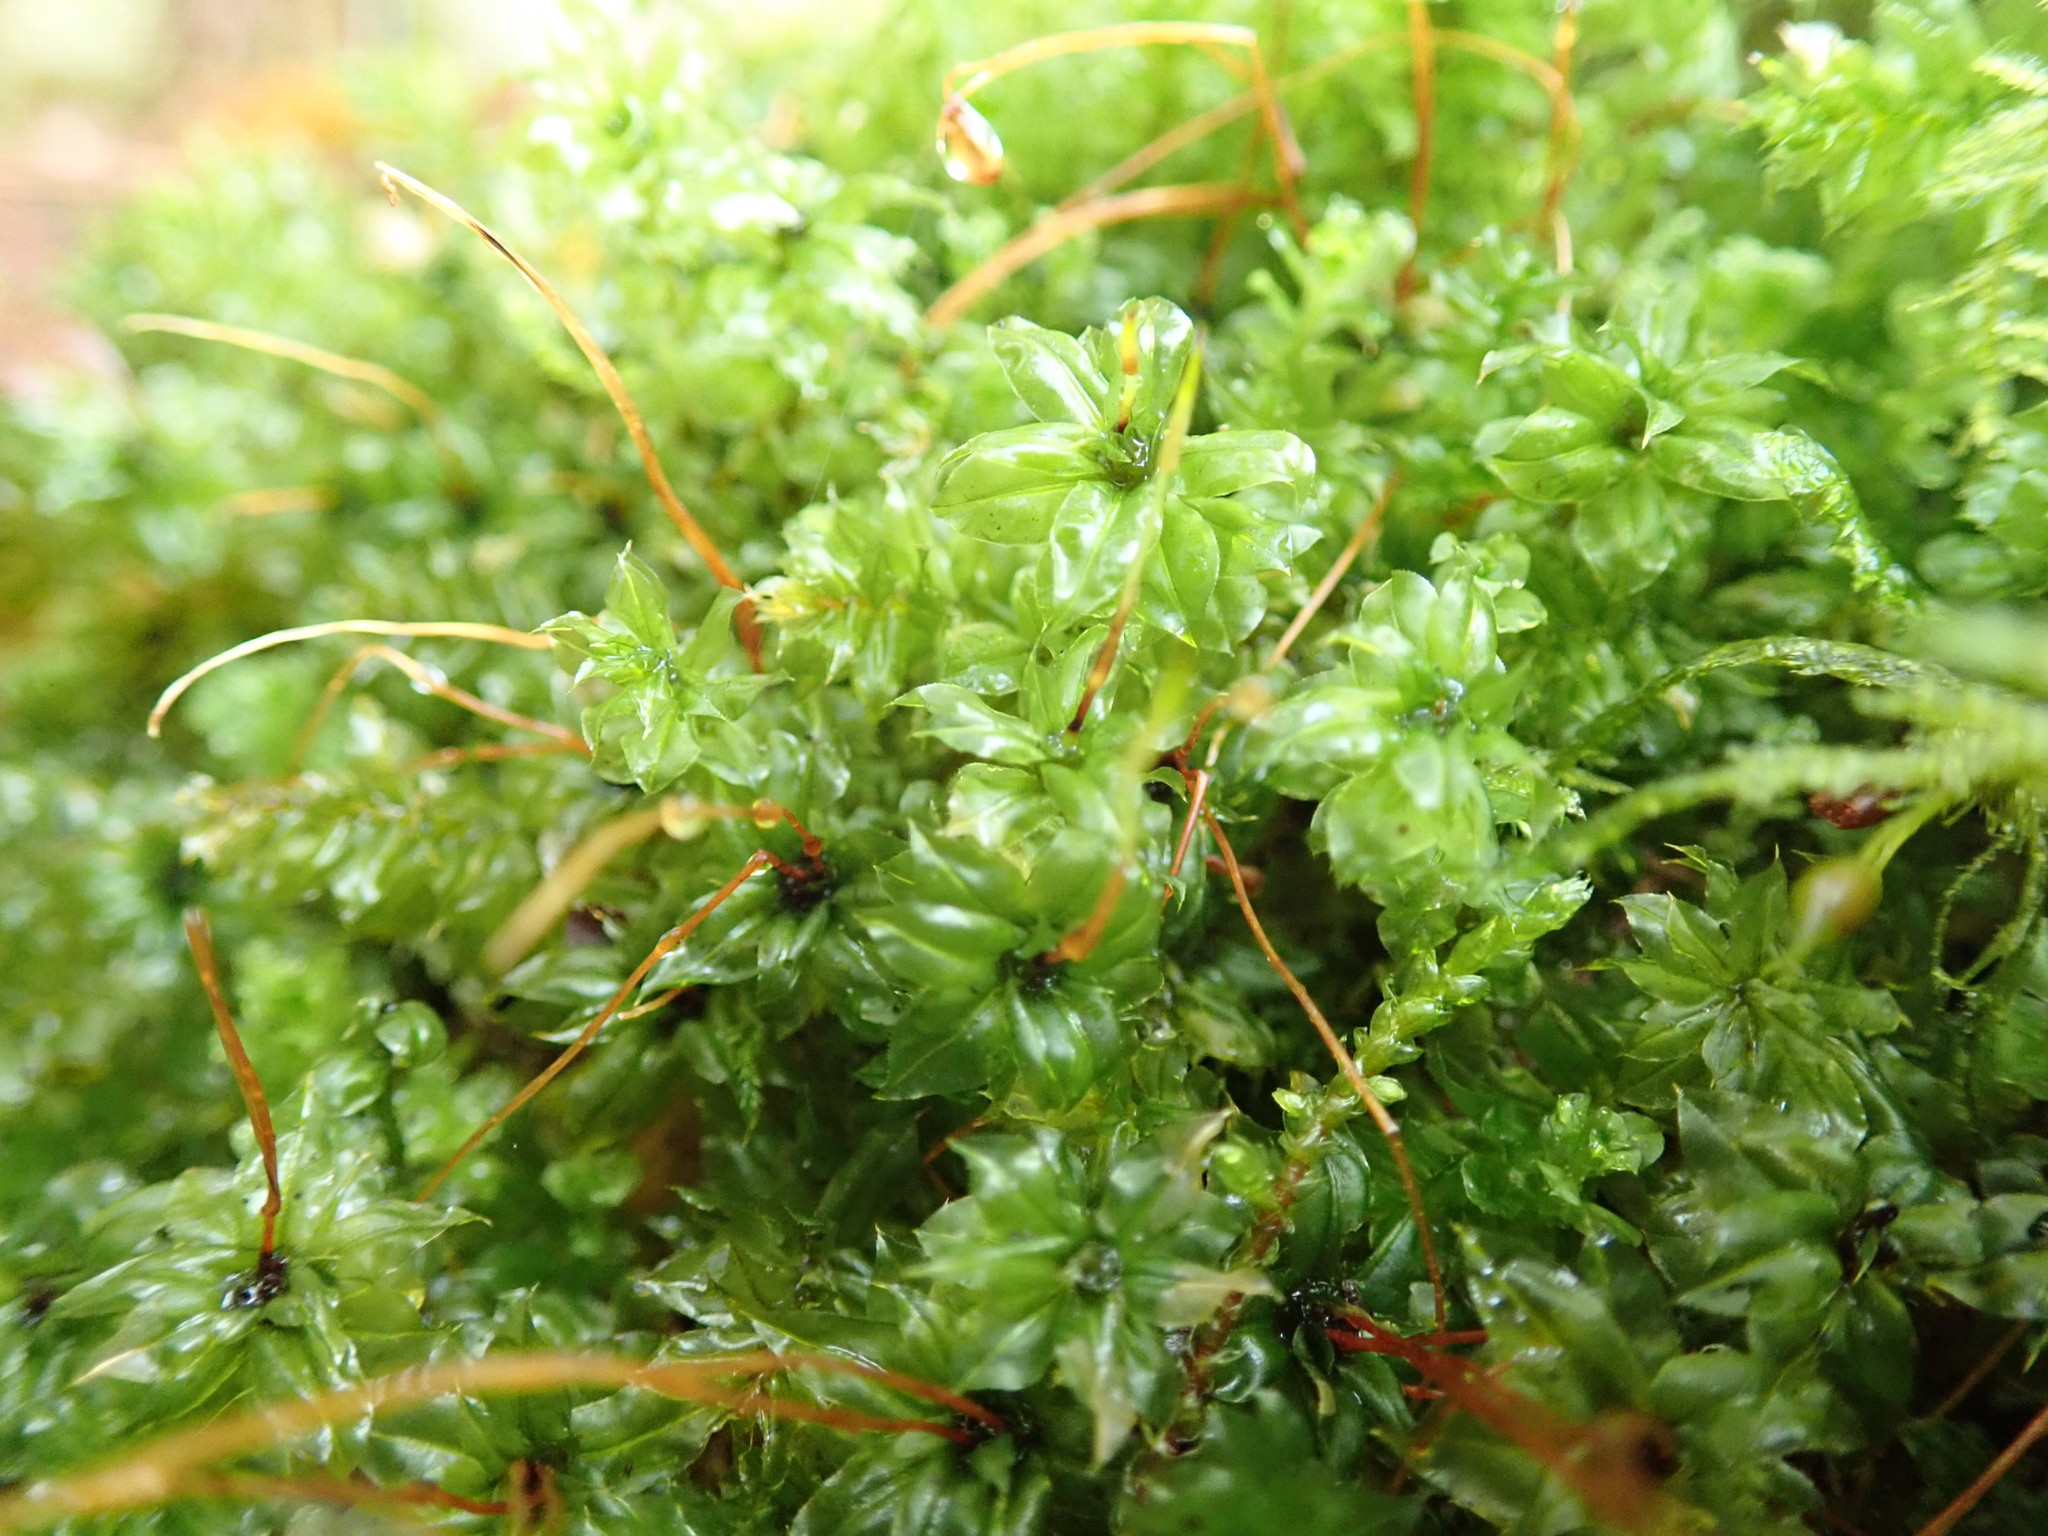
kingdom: Plantae
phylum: Bryophyta
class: Bryopsida
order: Bryales
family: Mniaceae
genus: Plagiomnium
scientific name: Plagiomnium venustum
